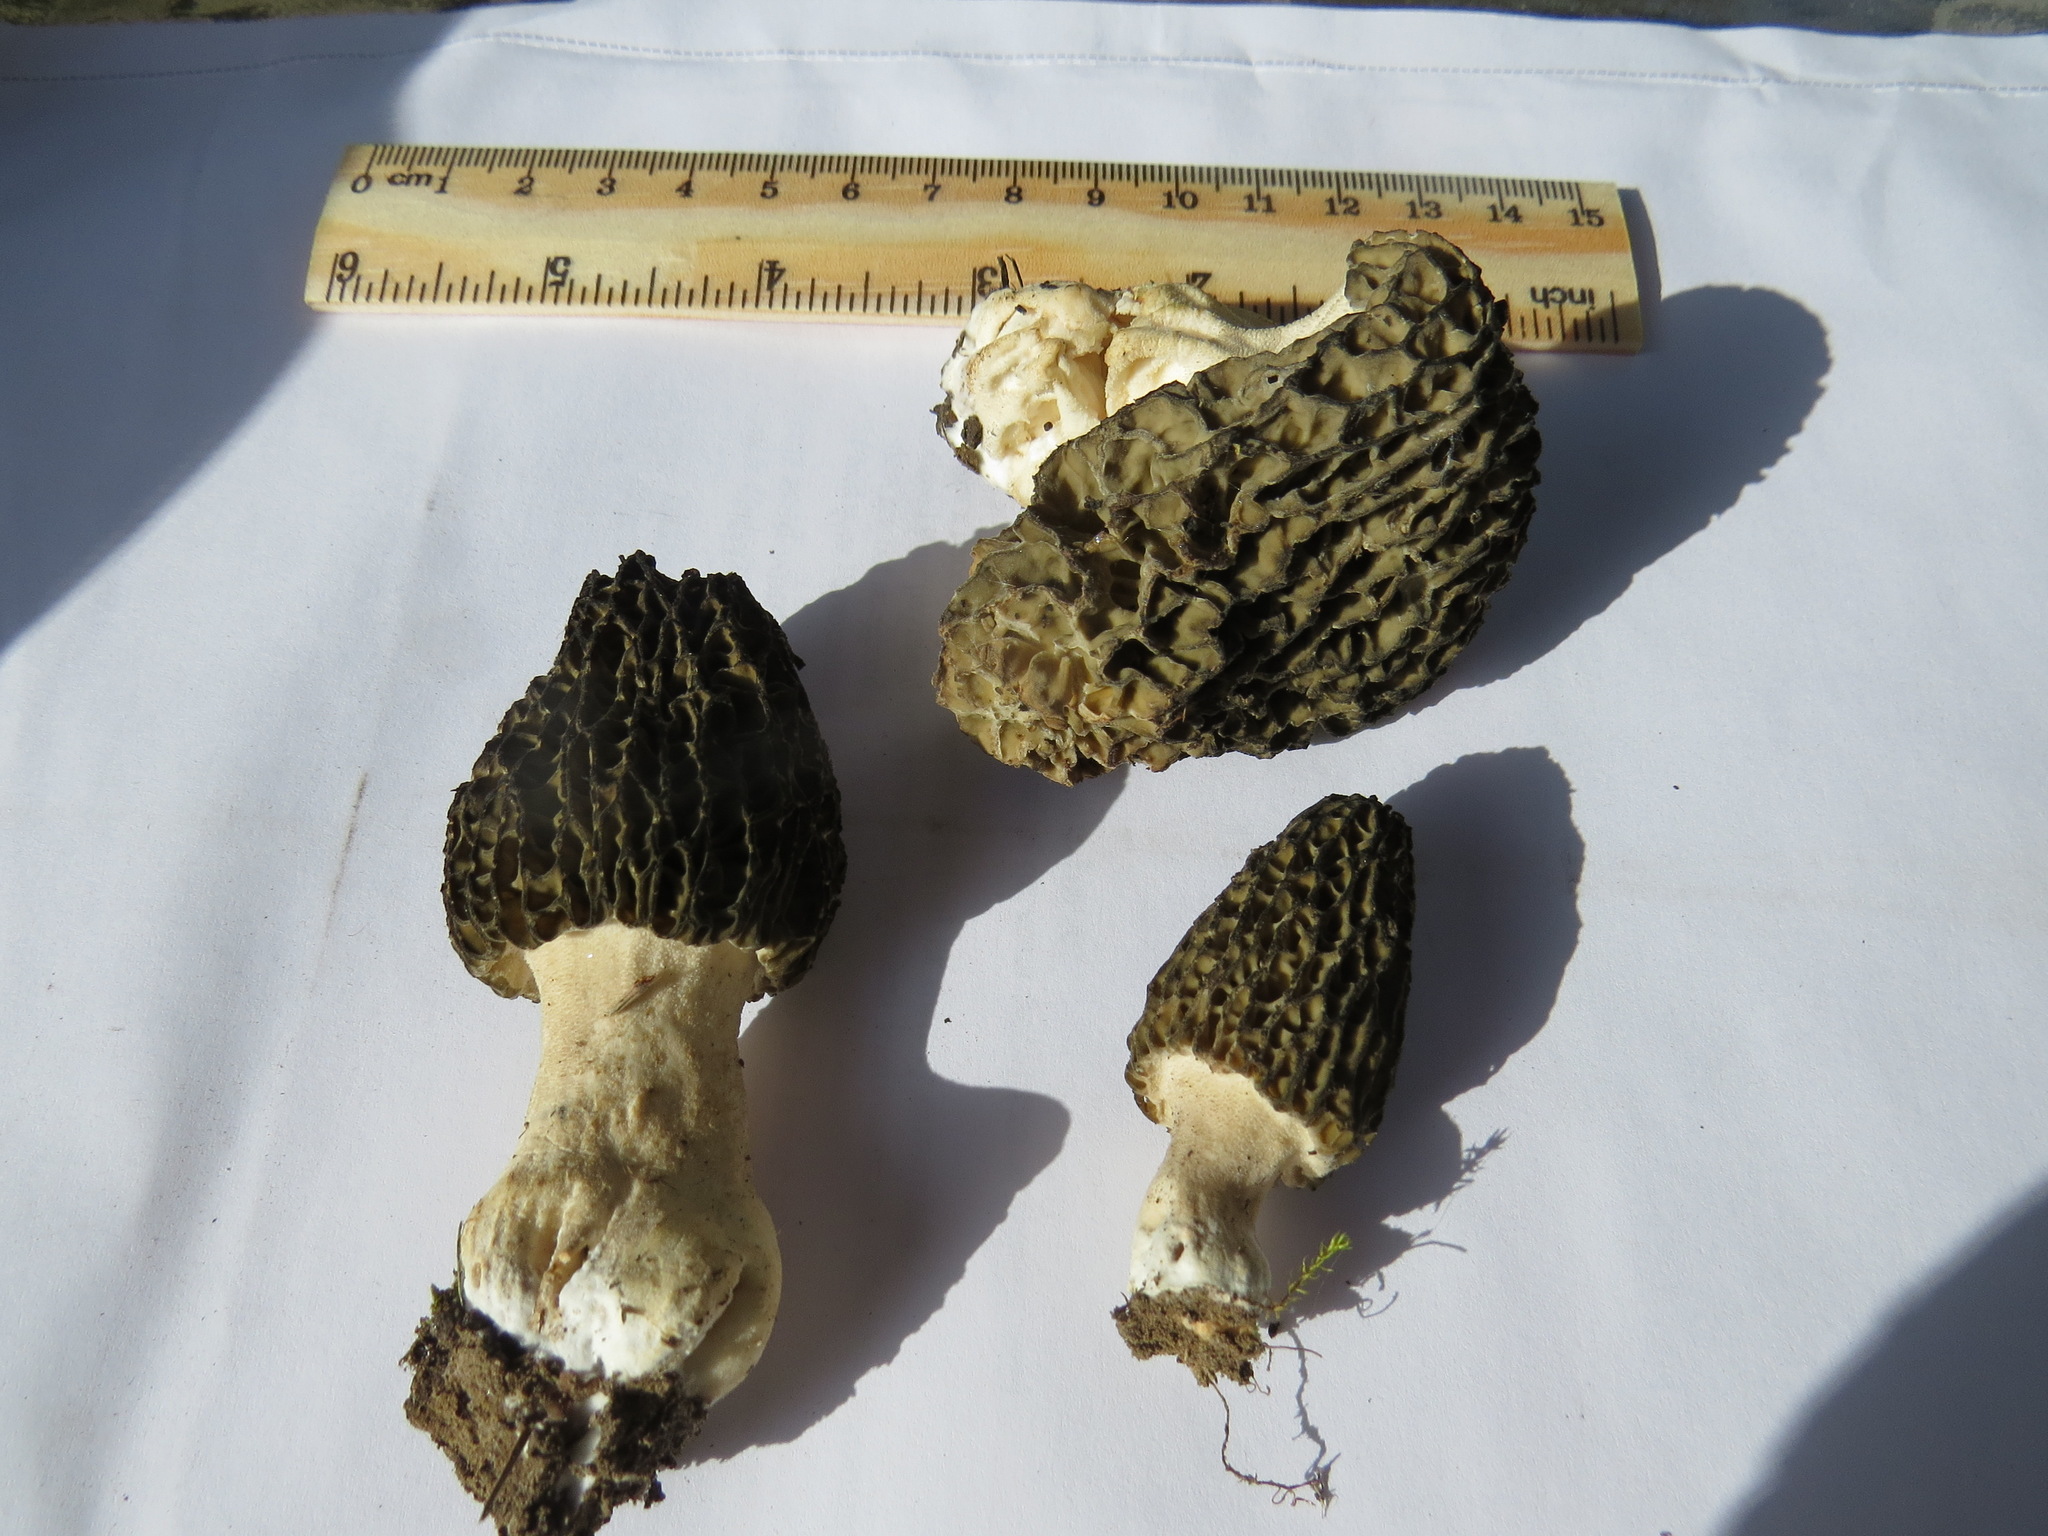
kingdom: Fungi
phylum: Ascomycota
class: Pezizomycetes
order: Pezizales
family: Morchellaceae
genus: Morchella
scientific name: Morchella importuna
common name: Landscaping black morel
